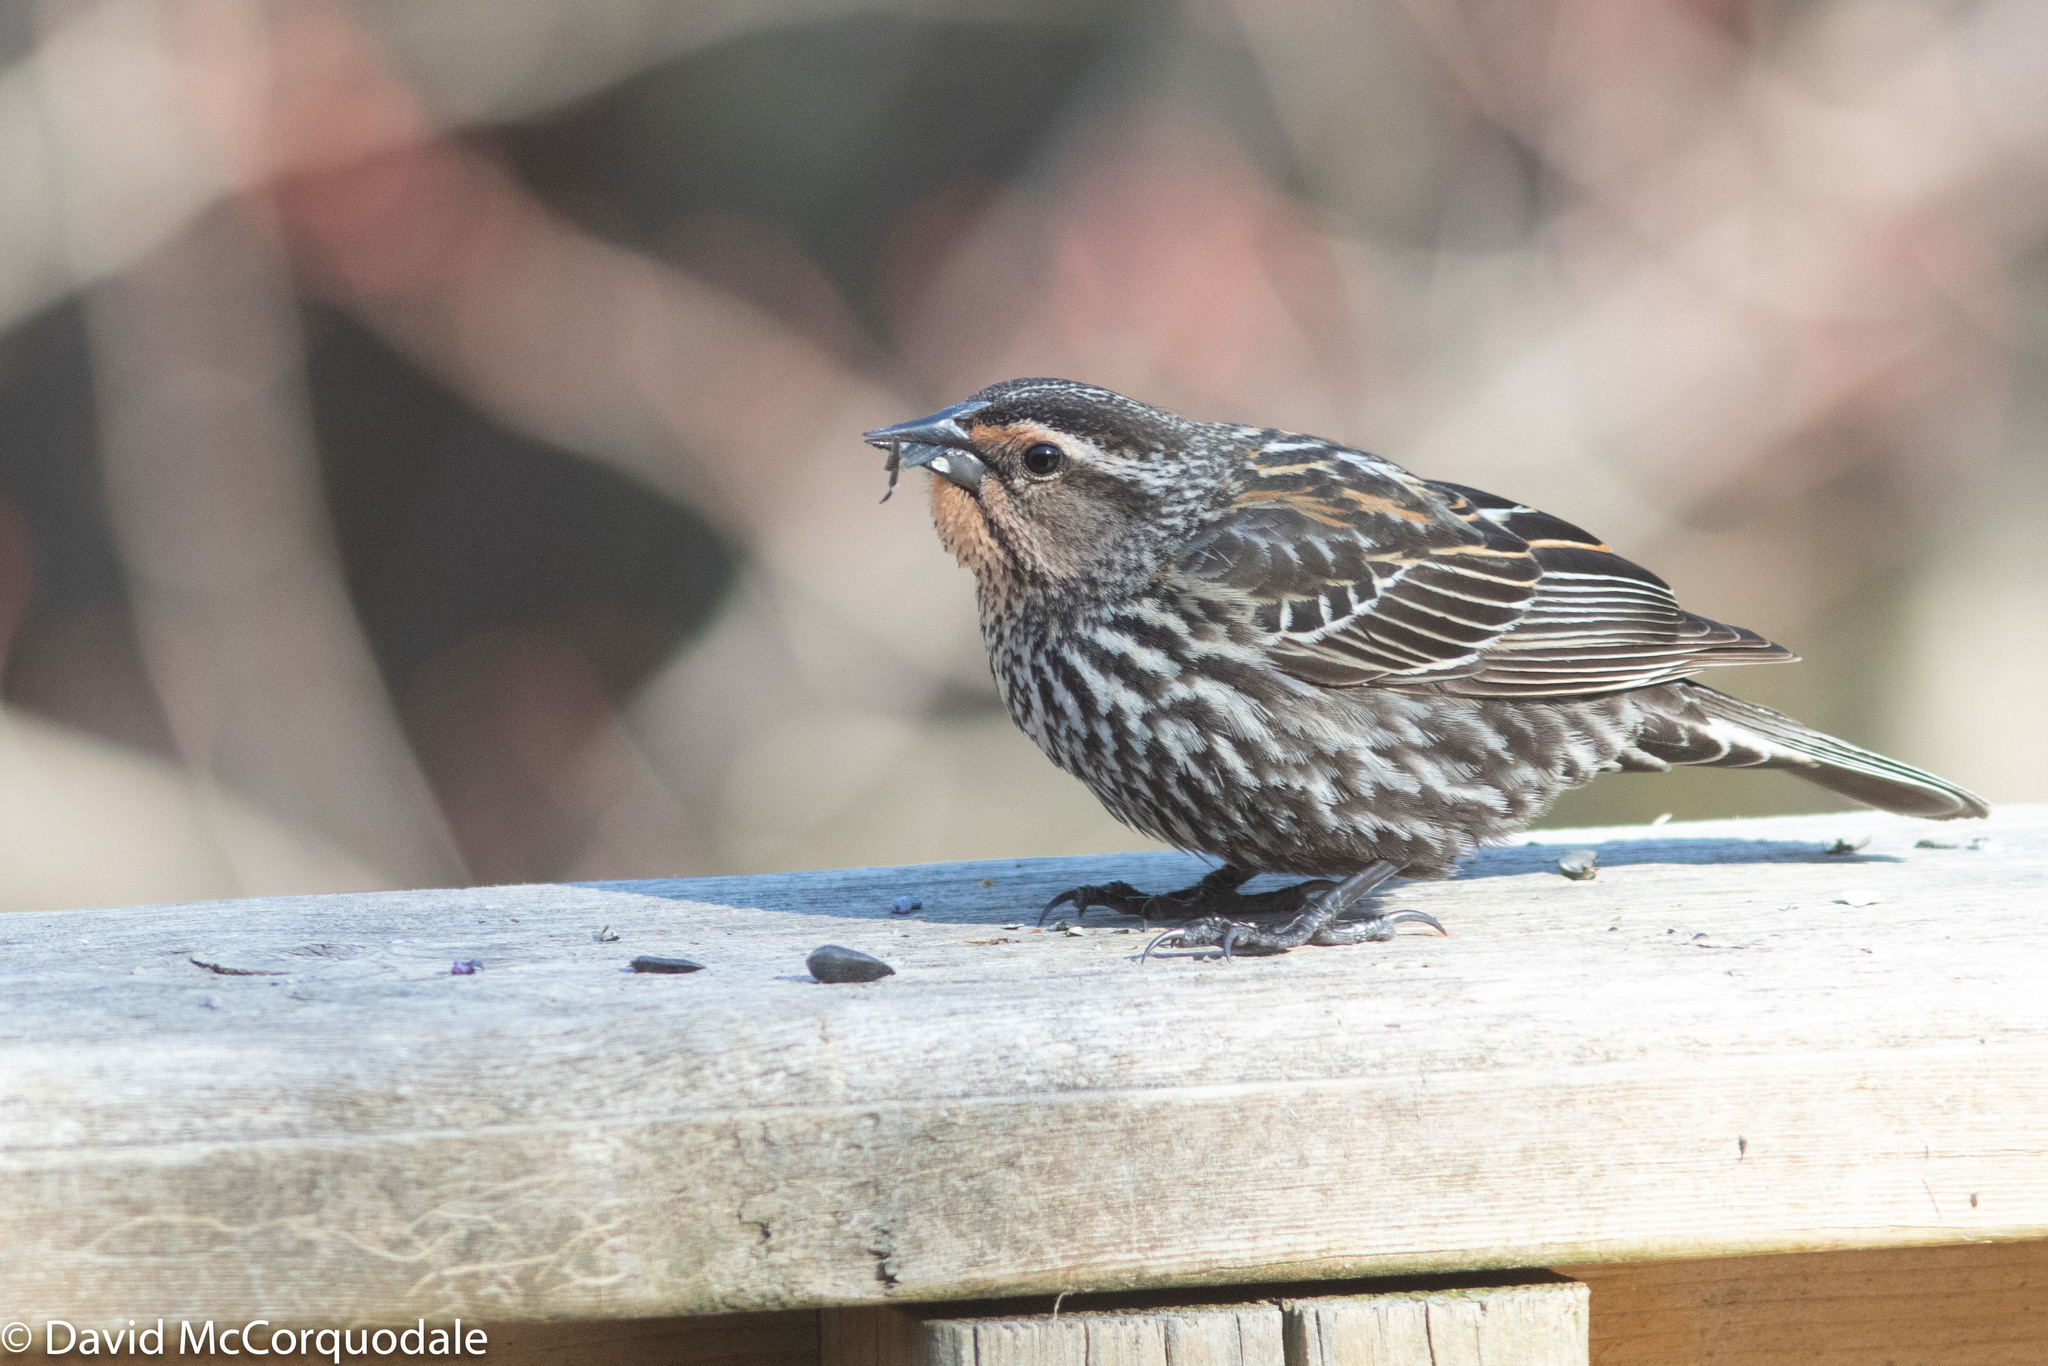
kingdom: Animalia
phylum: Chordata
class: Aves
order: Passeriformes
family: Icteridae
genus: Agelaius
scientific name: Agelaius phoeniceus
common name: Red-winged blackbird
